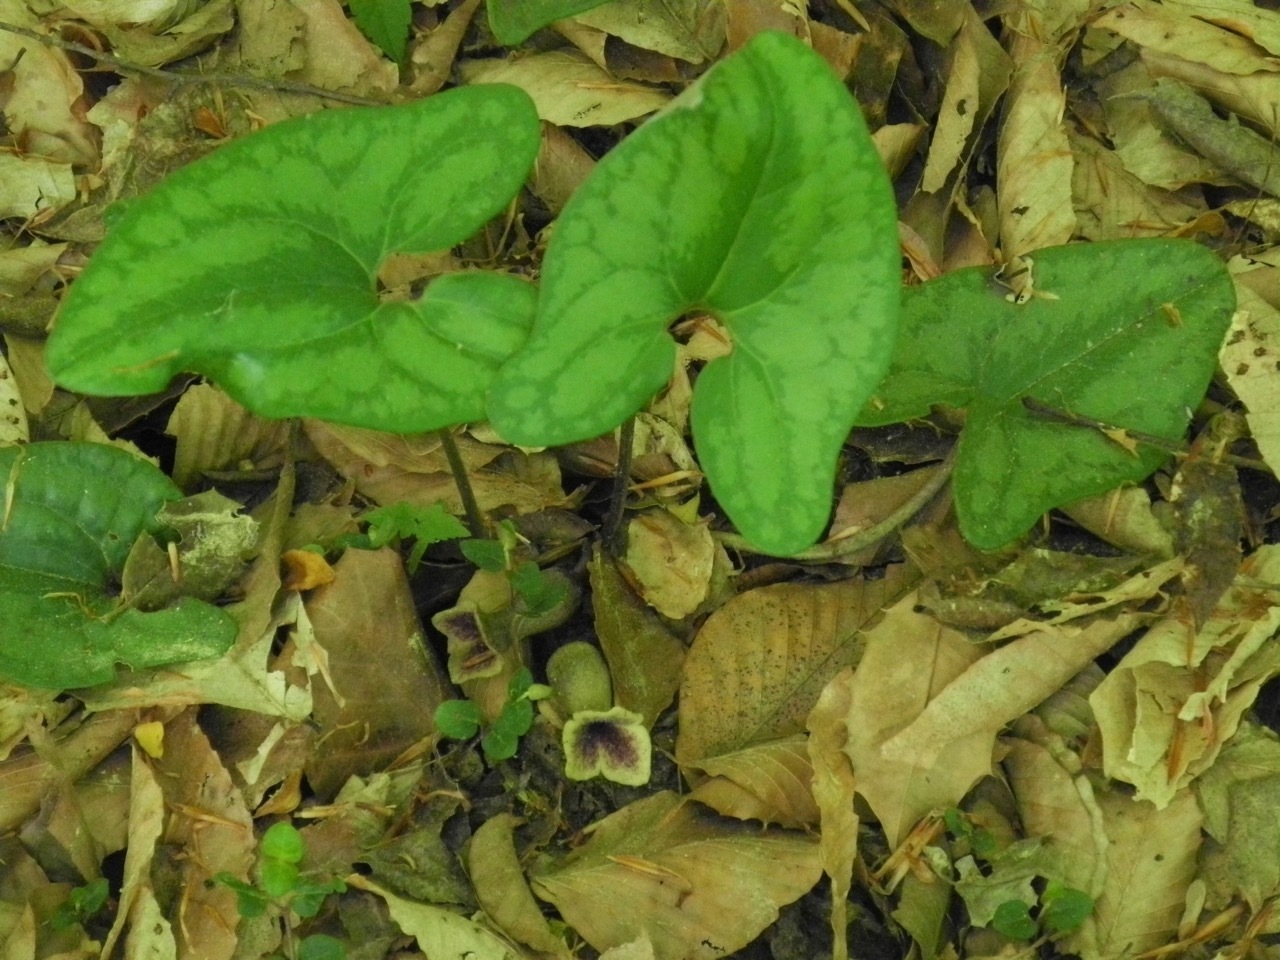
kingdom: Plantae
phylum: Tracheophyta
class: Magnoliopsida
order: Piperales
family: Aristolochiaceae
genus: Hexastylis
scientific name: Hexastylis arifolia
